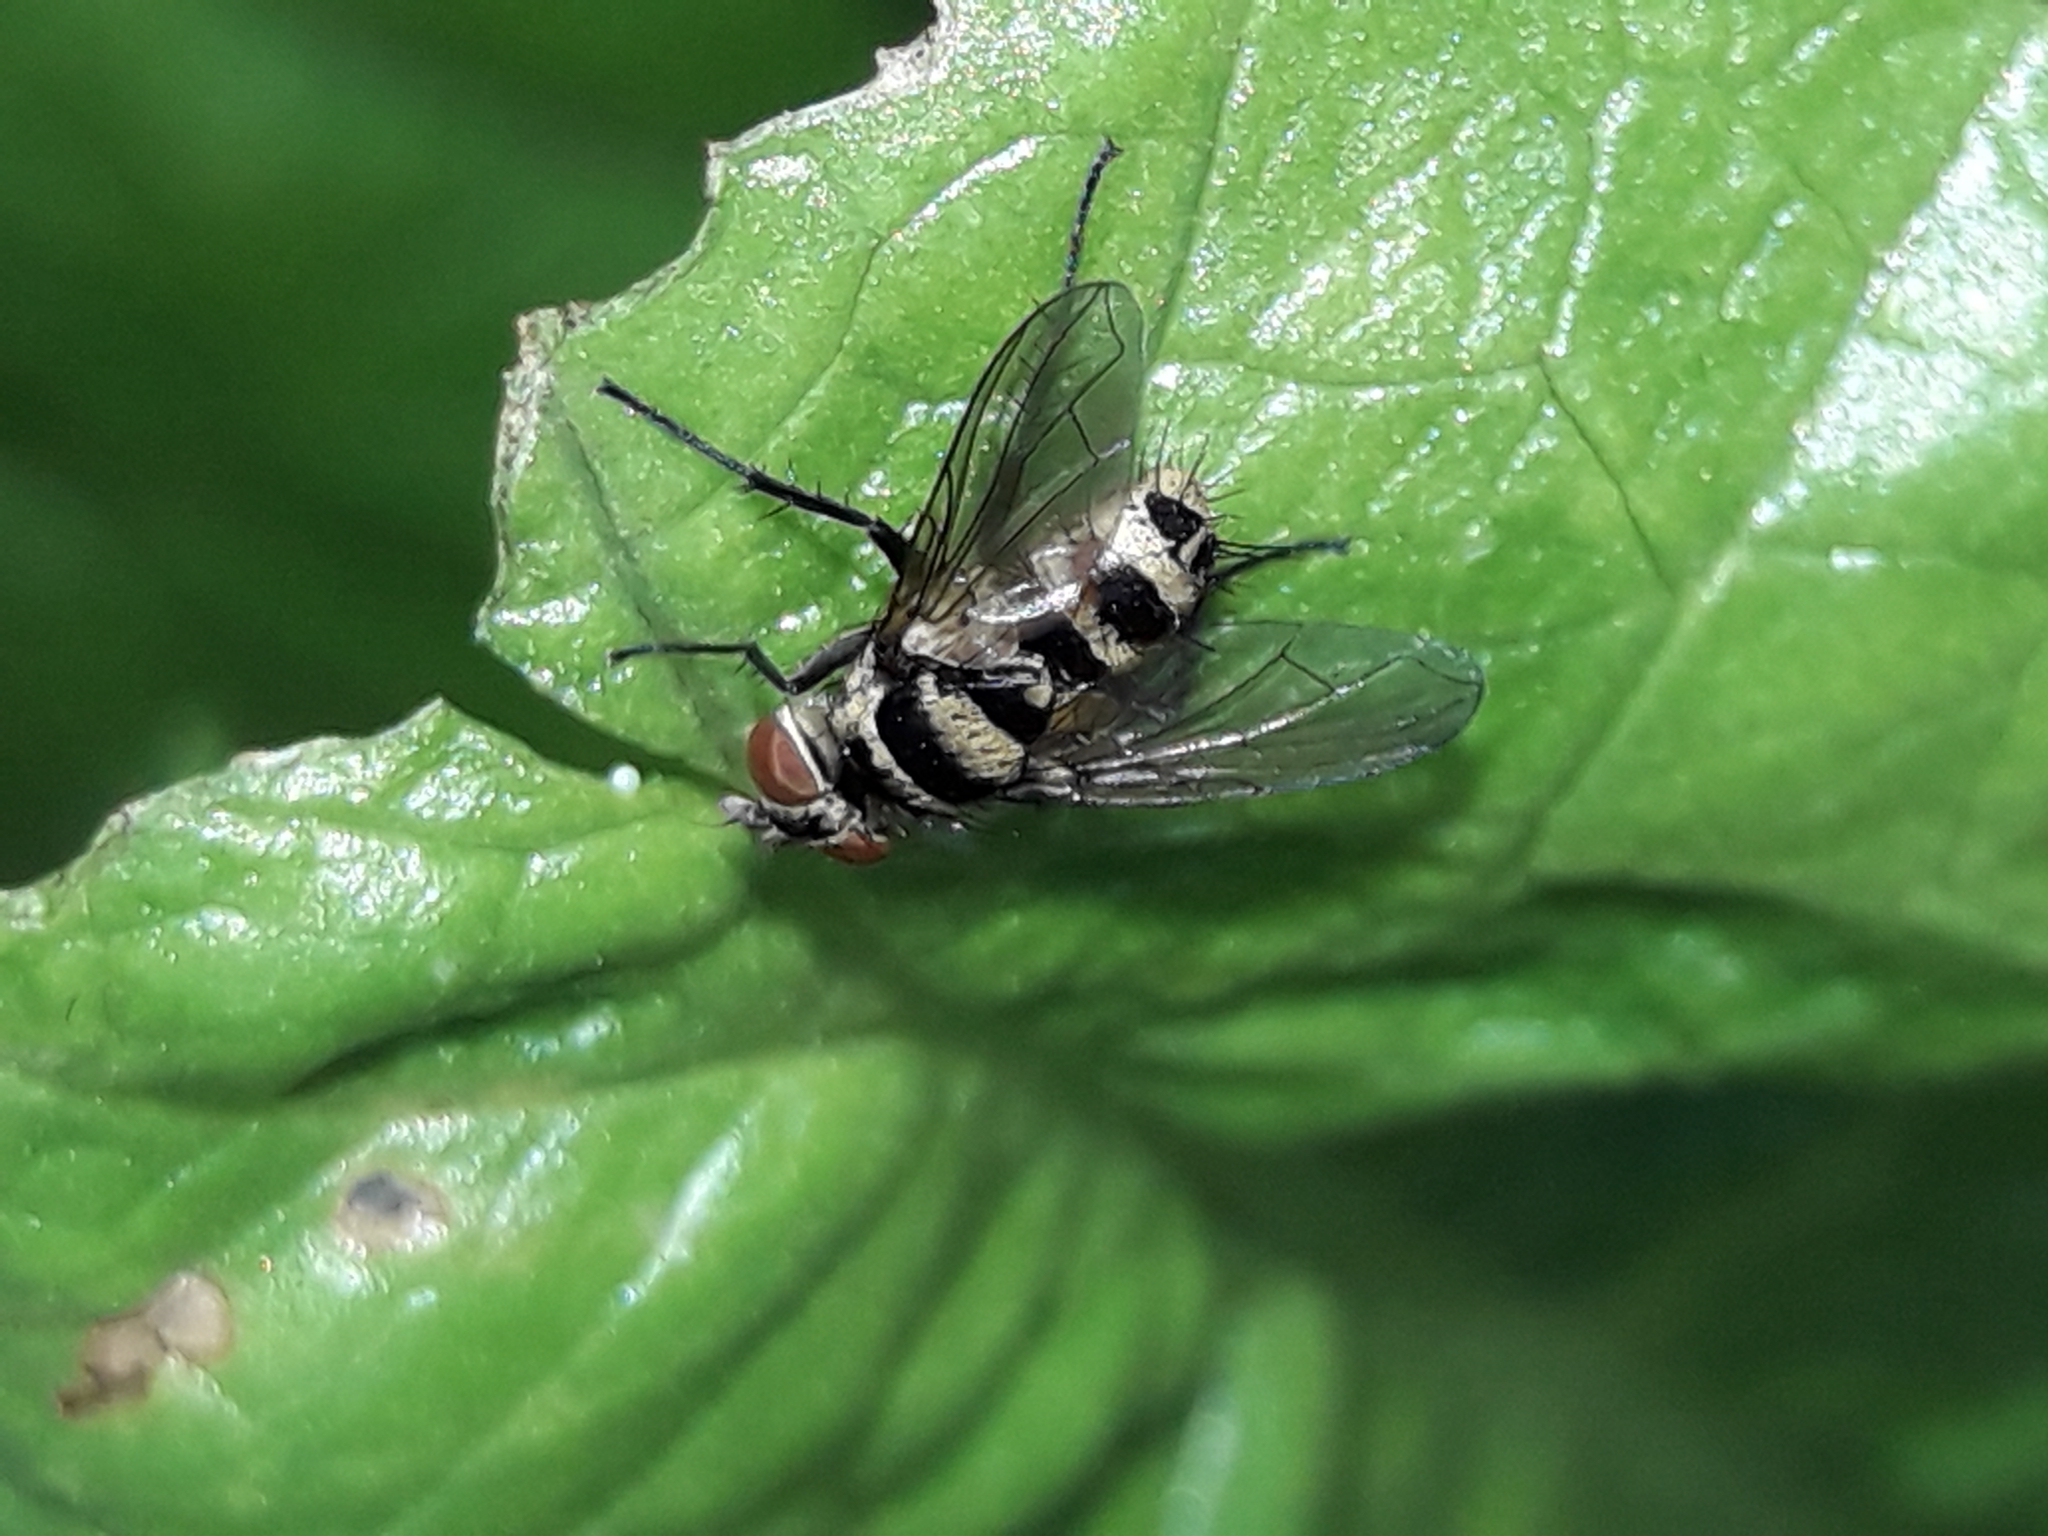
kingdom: Animalia
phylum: Arthropoda
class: Insecta
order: Diptera
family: Tachinidae
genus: Trigonospila
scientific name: Trigonospila brevifacies
